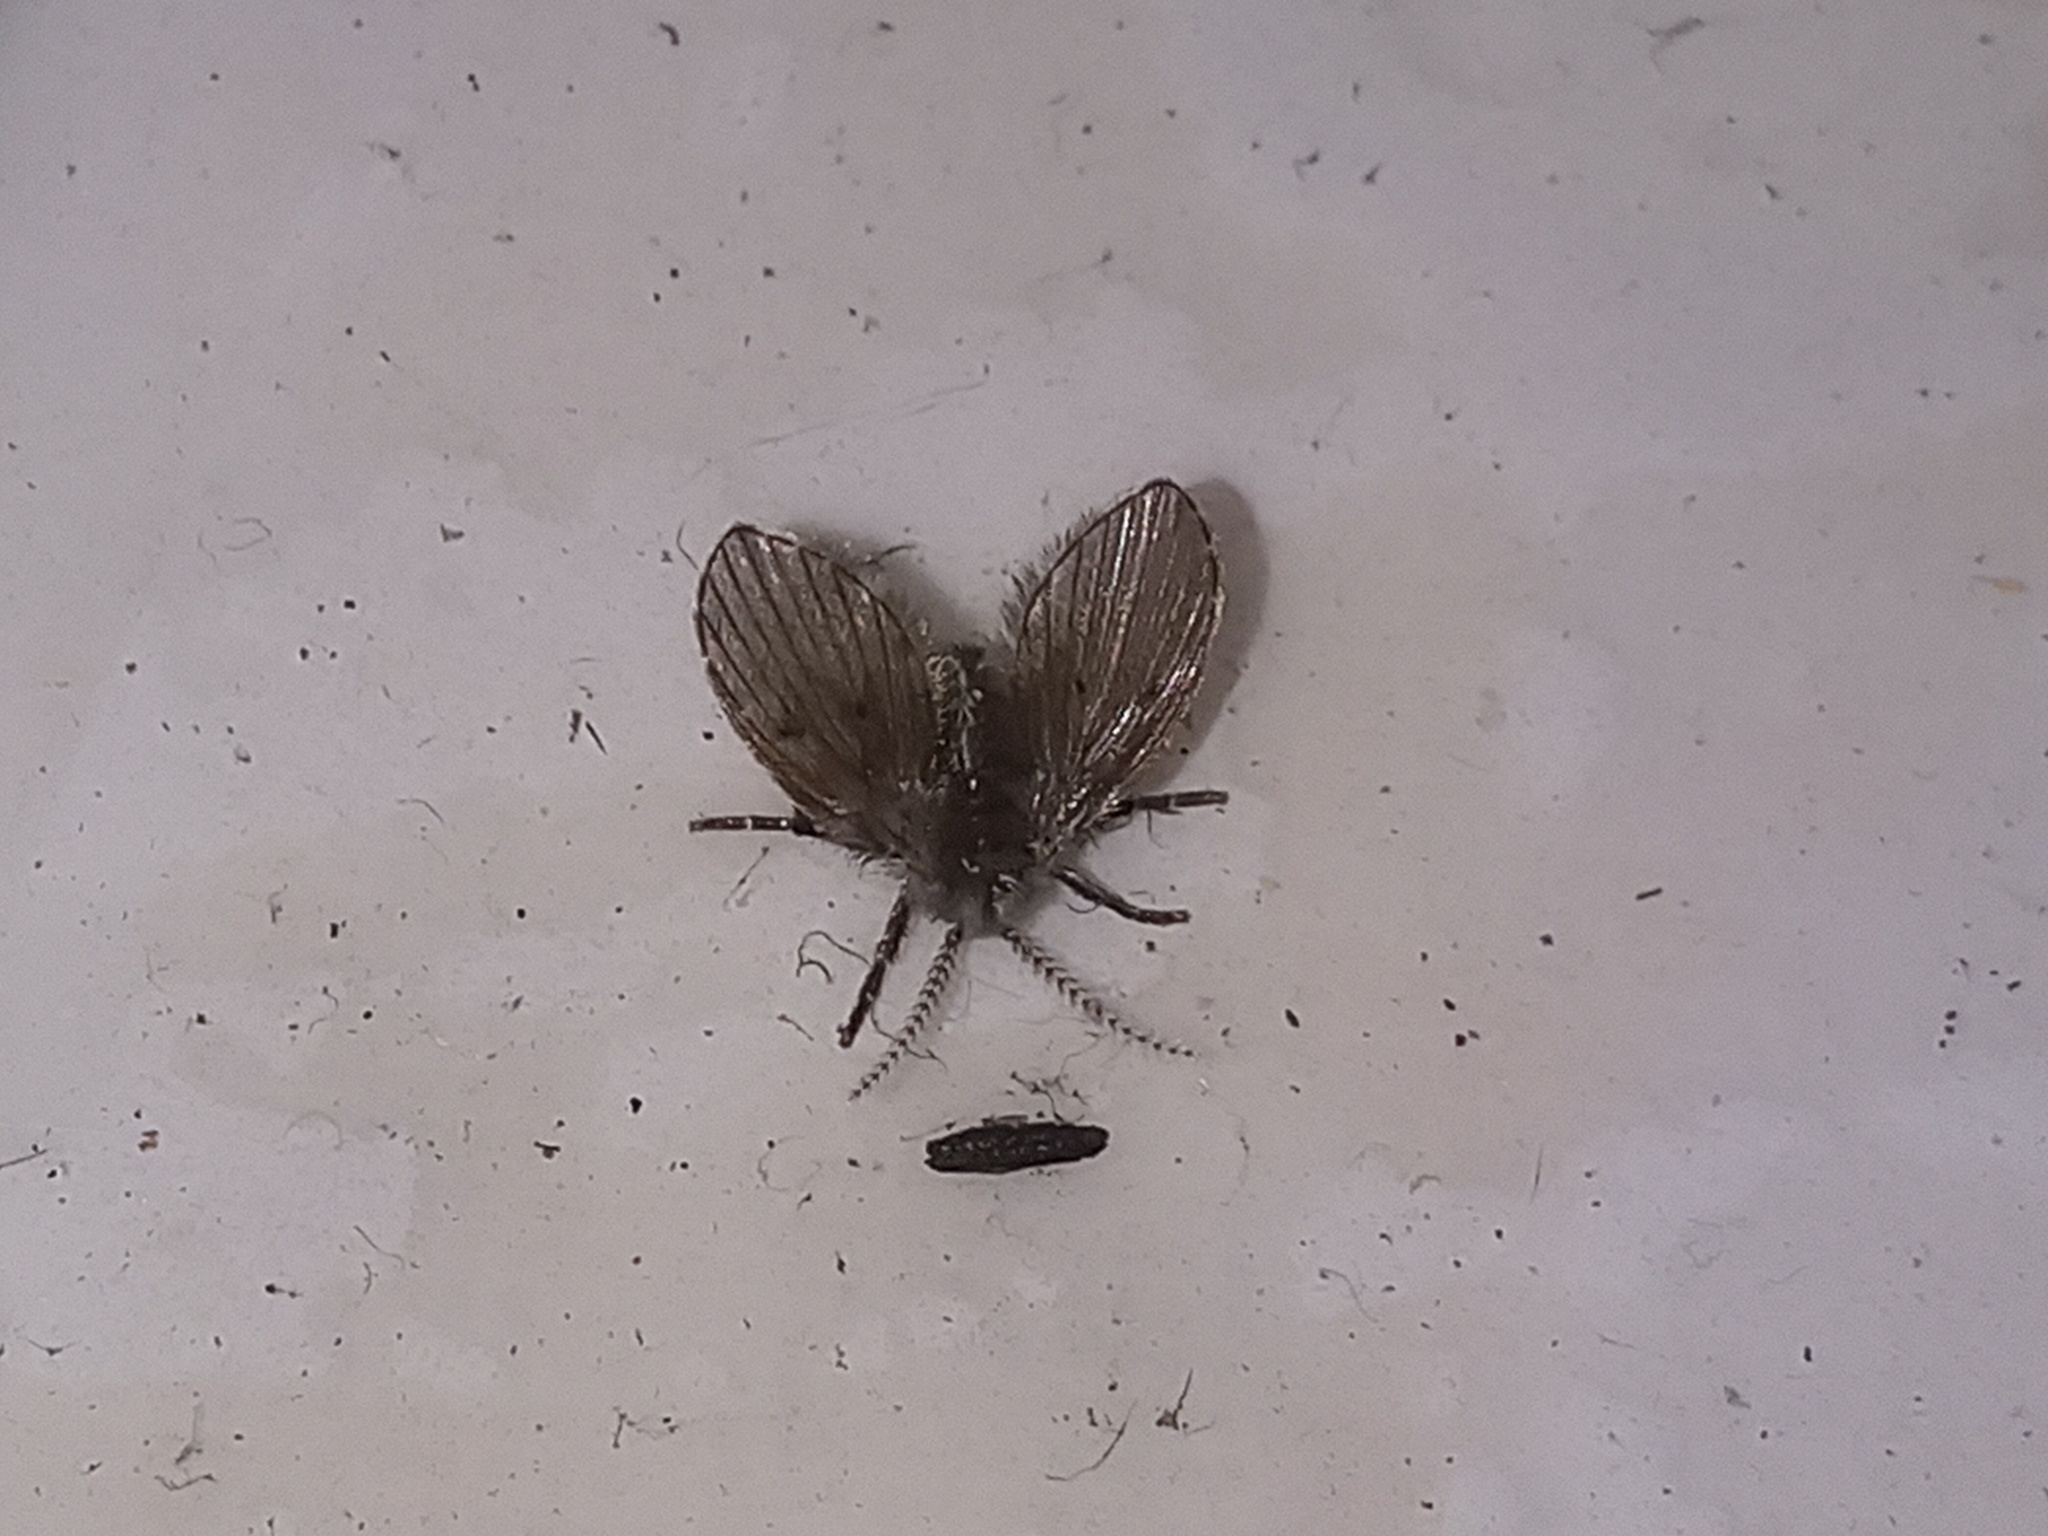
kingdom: Animalia
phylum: Arthropoda
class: Insecta
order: Diptera
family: Psychodidae
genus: Clogmia
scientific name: Clogmia albipunctatus
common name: White-spotted moth fly
